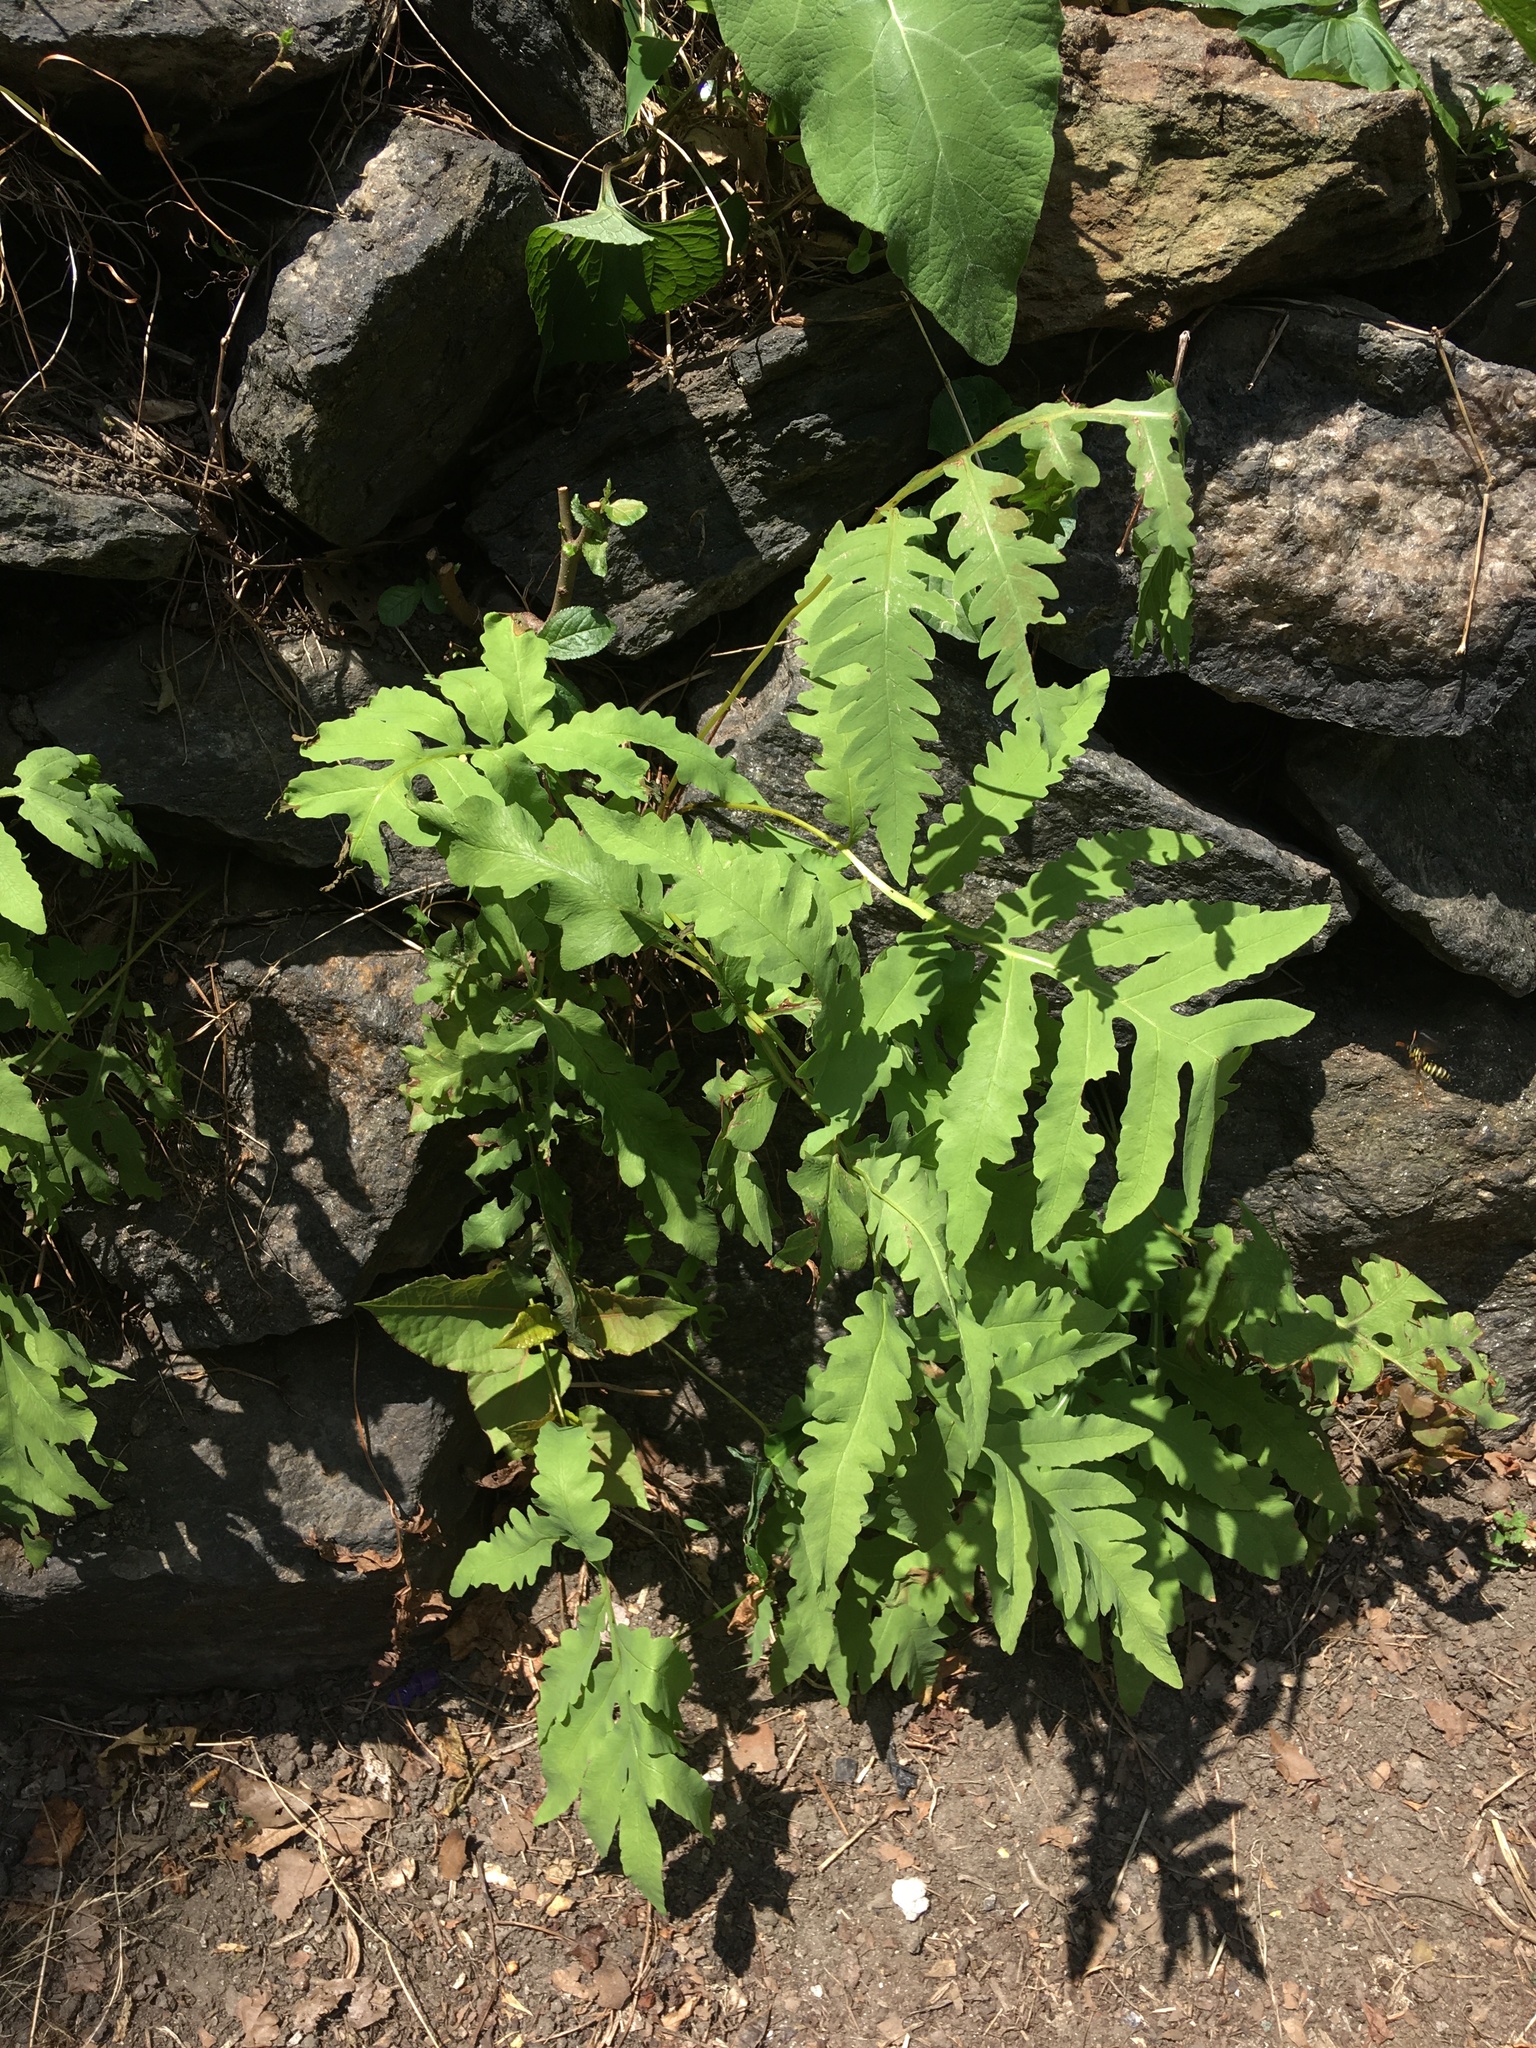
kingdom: Plantae
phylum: Tracheophyta
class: Polypodiopsida
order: Polypodiales
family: Onocleaceae
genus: Onoclea
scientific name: Onoclea sensibilis
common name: Sensitive fern
